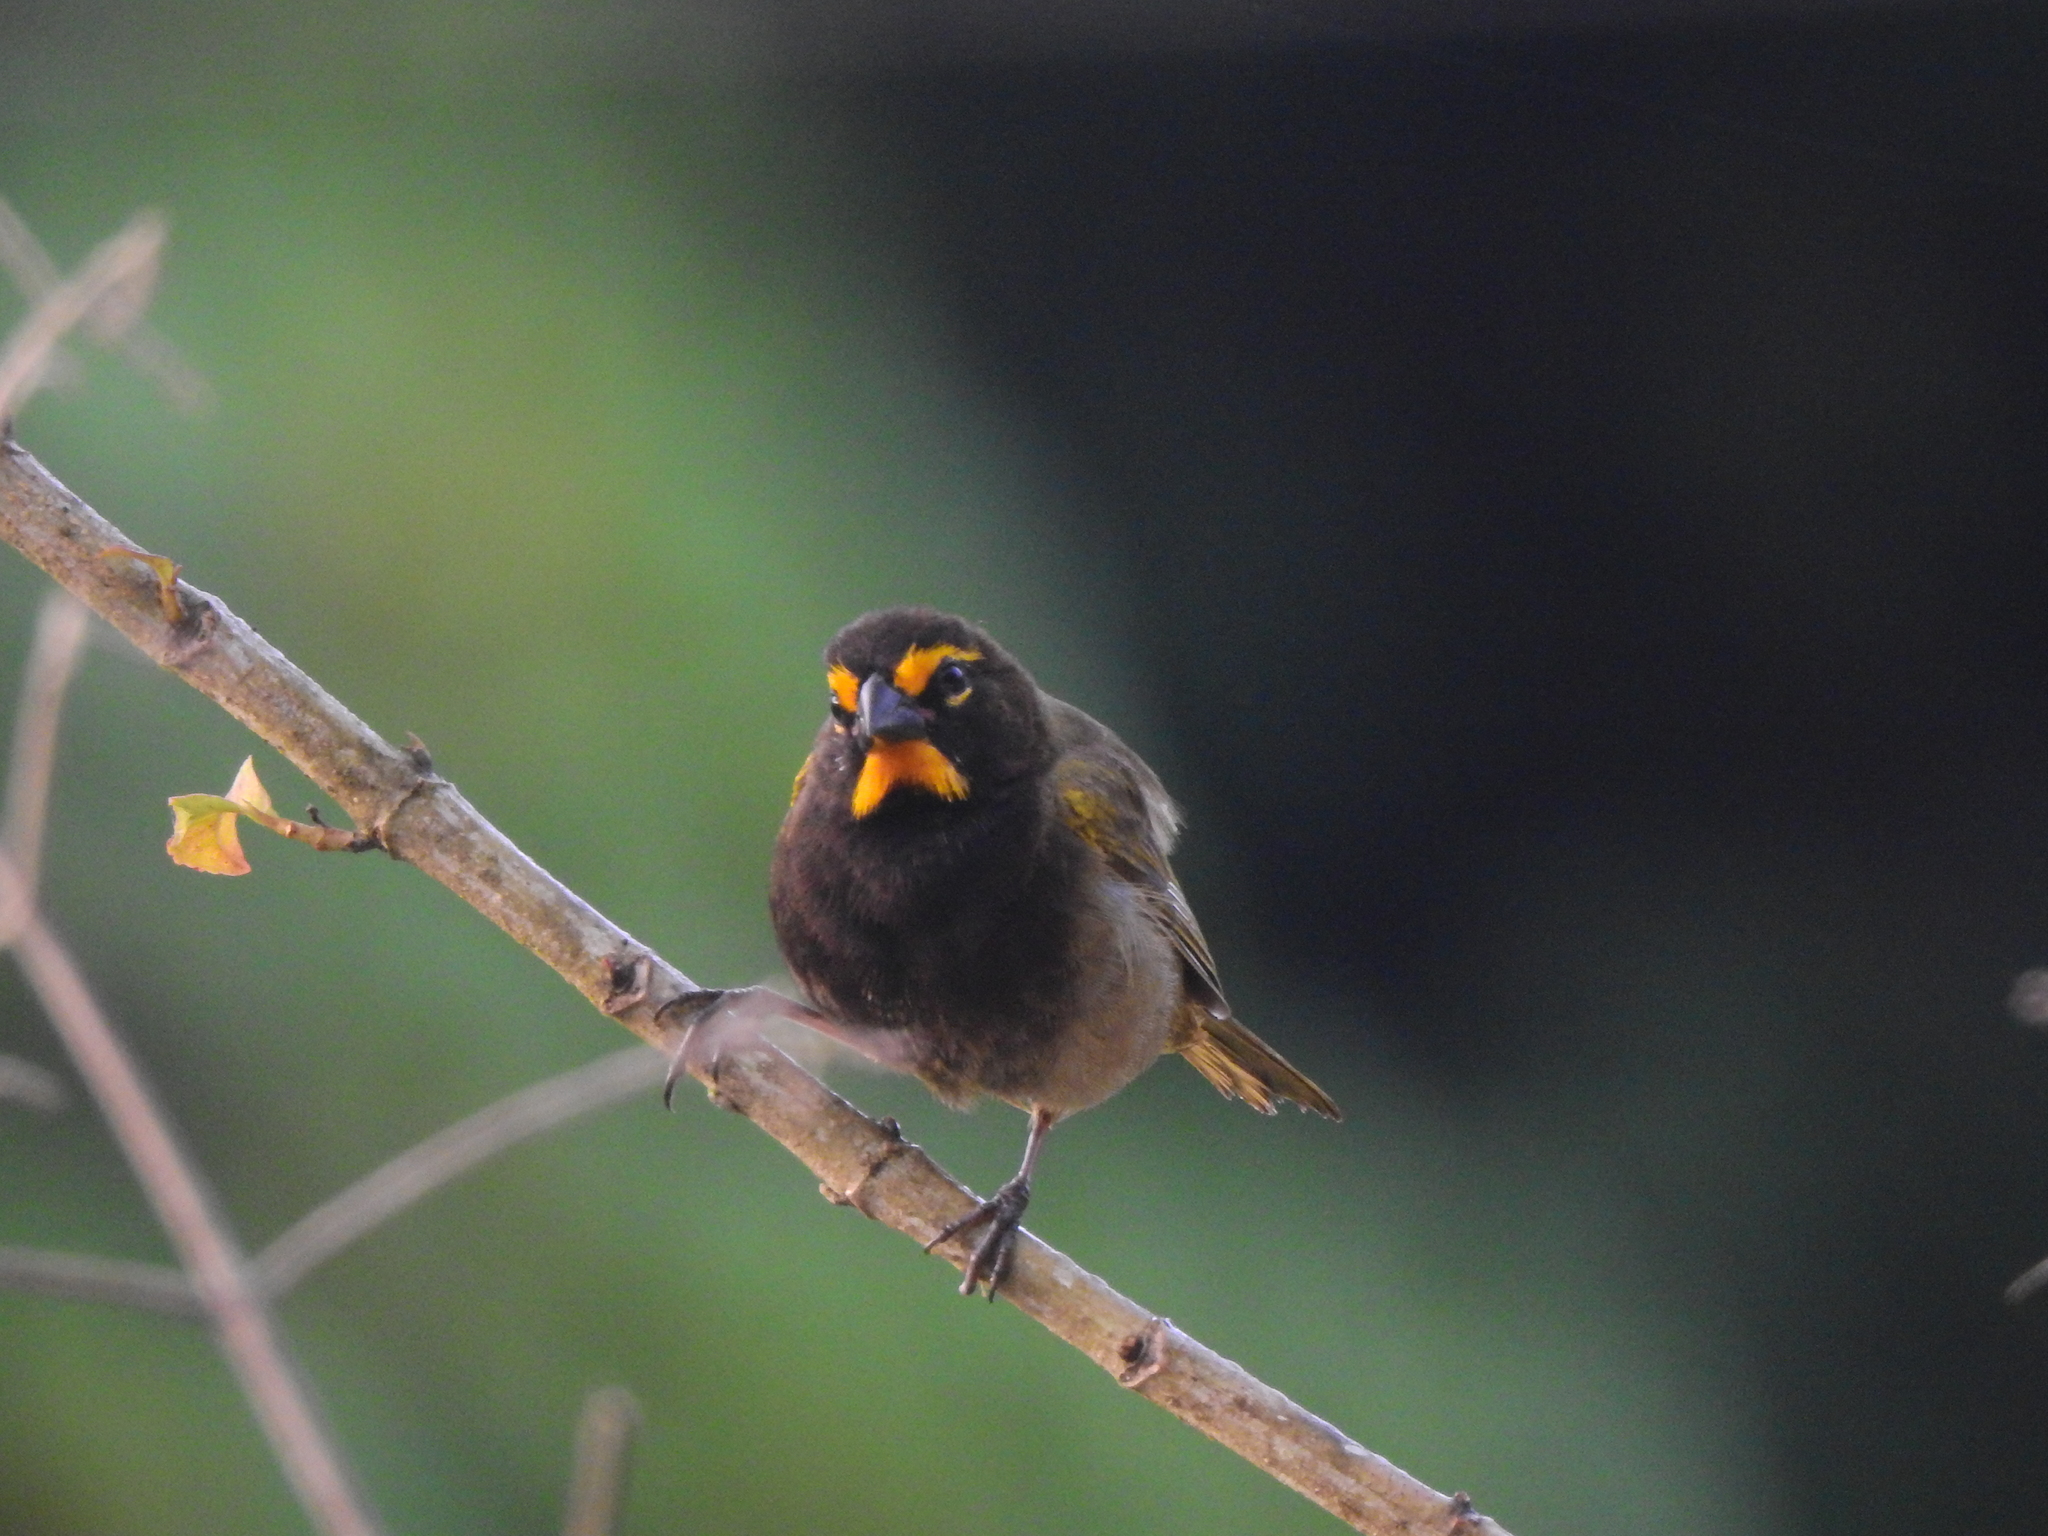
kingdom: Animalia
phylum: Chordata
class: Aves
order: Passeriformes
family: Thraupidae
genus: Tiaris
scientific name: Tiaris olivaceus
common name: Yellow-faced grassquit
